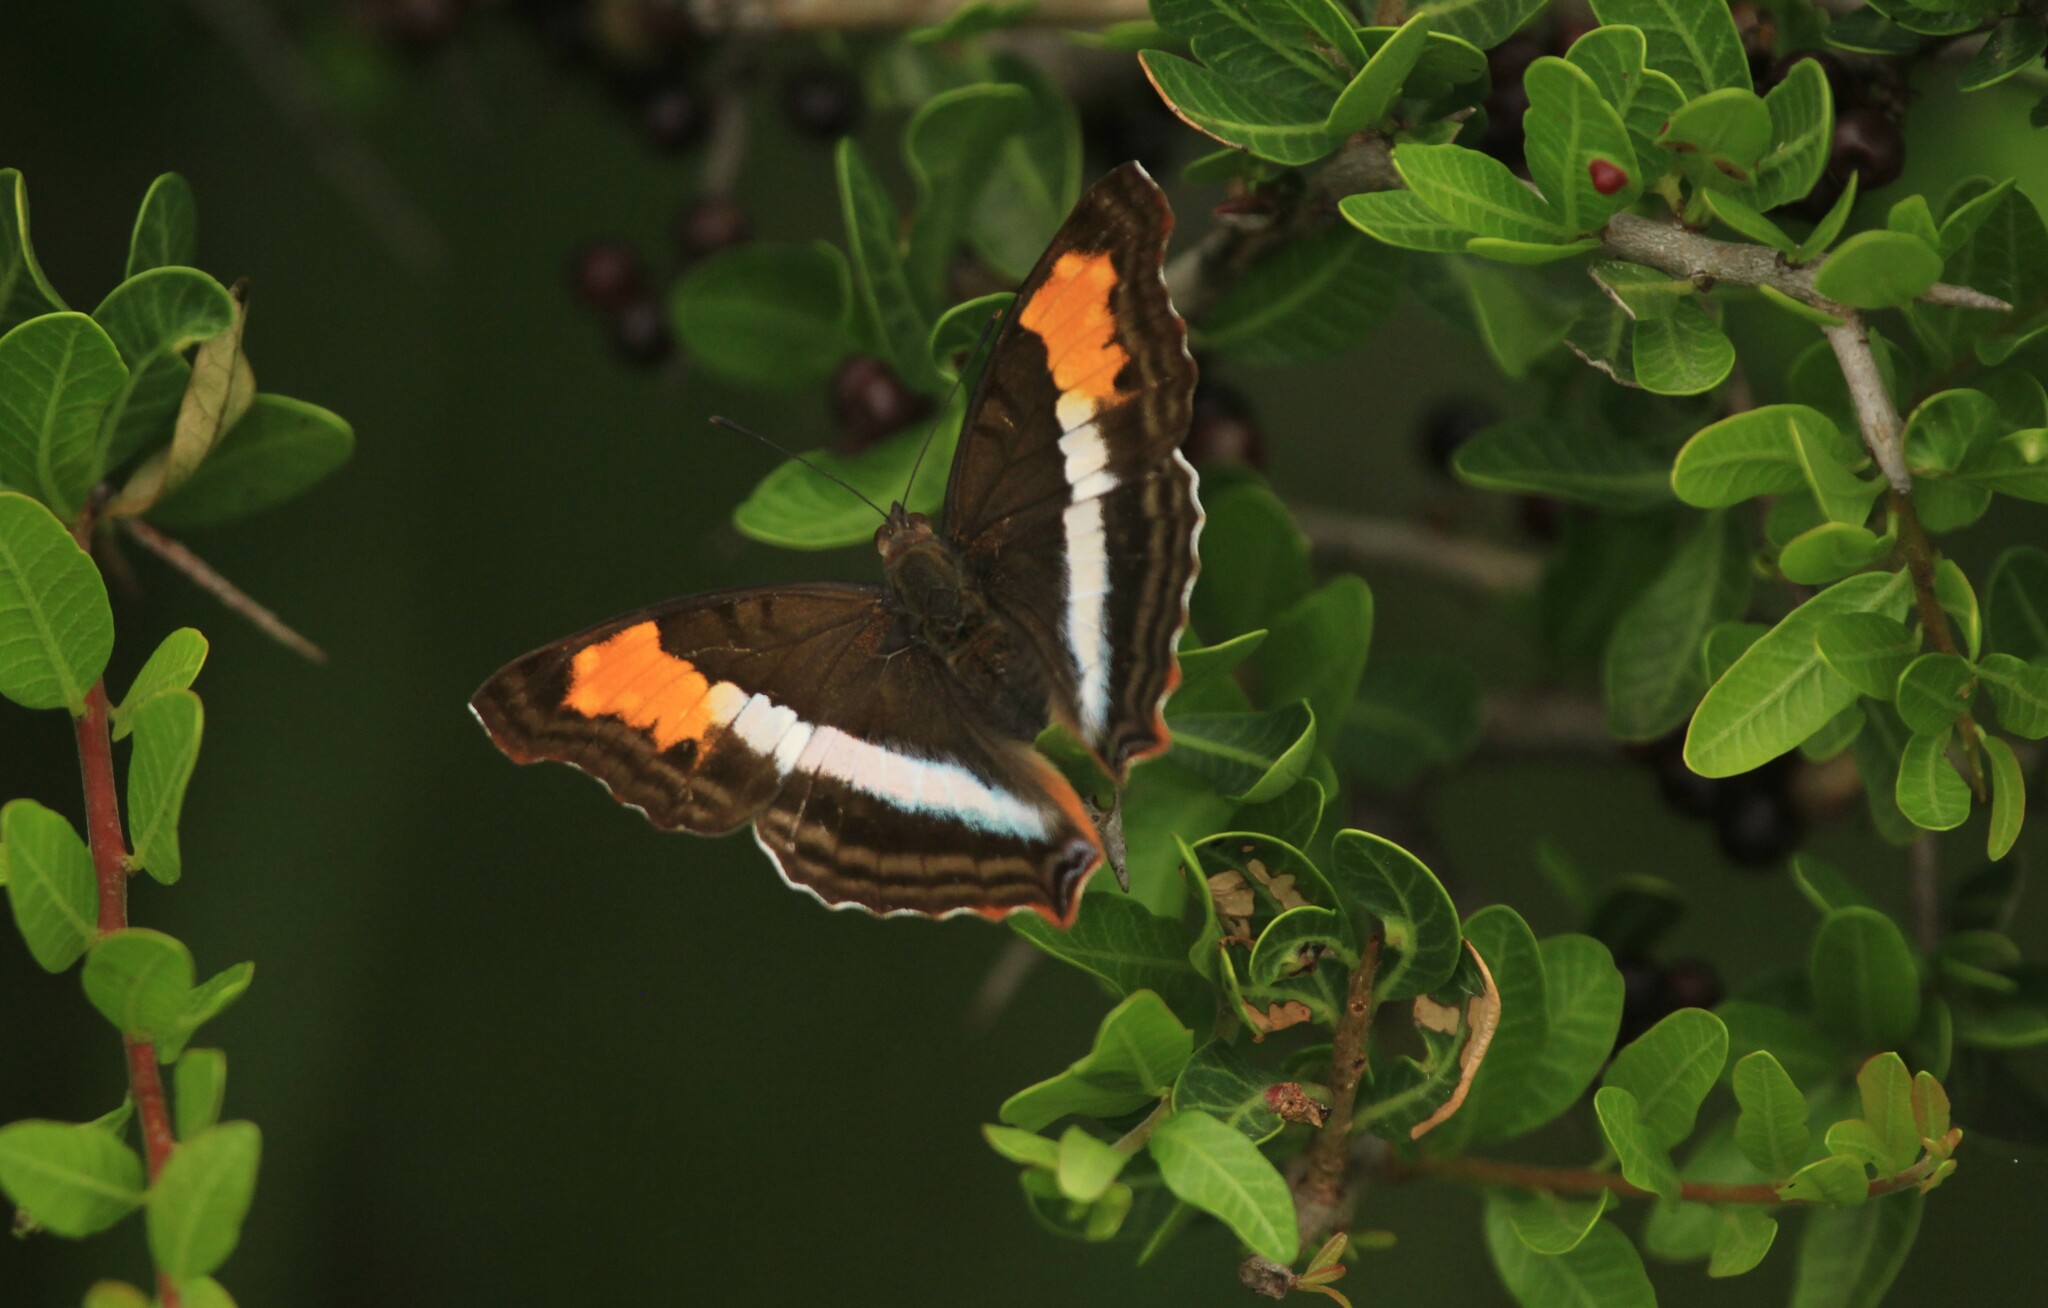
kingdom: Animalia
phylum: Arthropoda
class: Insecta
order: Lepidoptera
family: Nymphalidae
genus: Doxocopa
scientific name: Doxocopa laurentia
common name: Turquoise emperor
